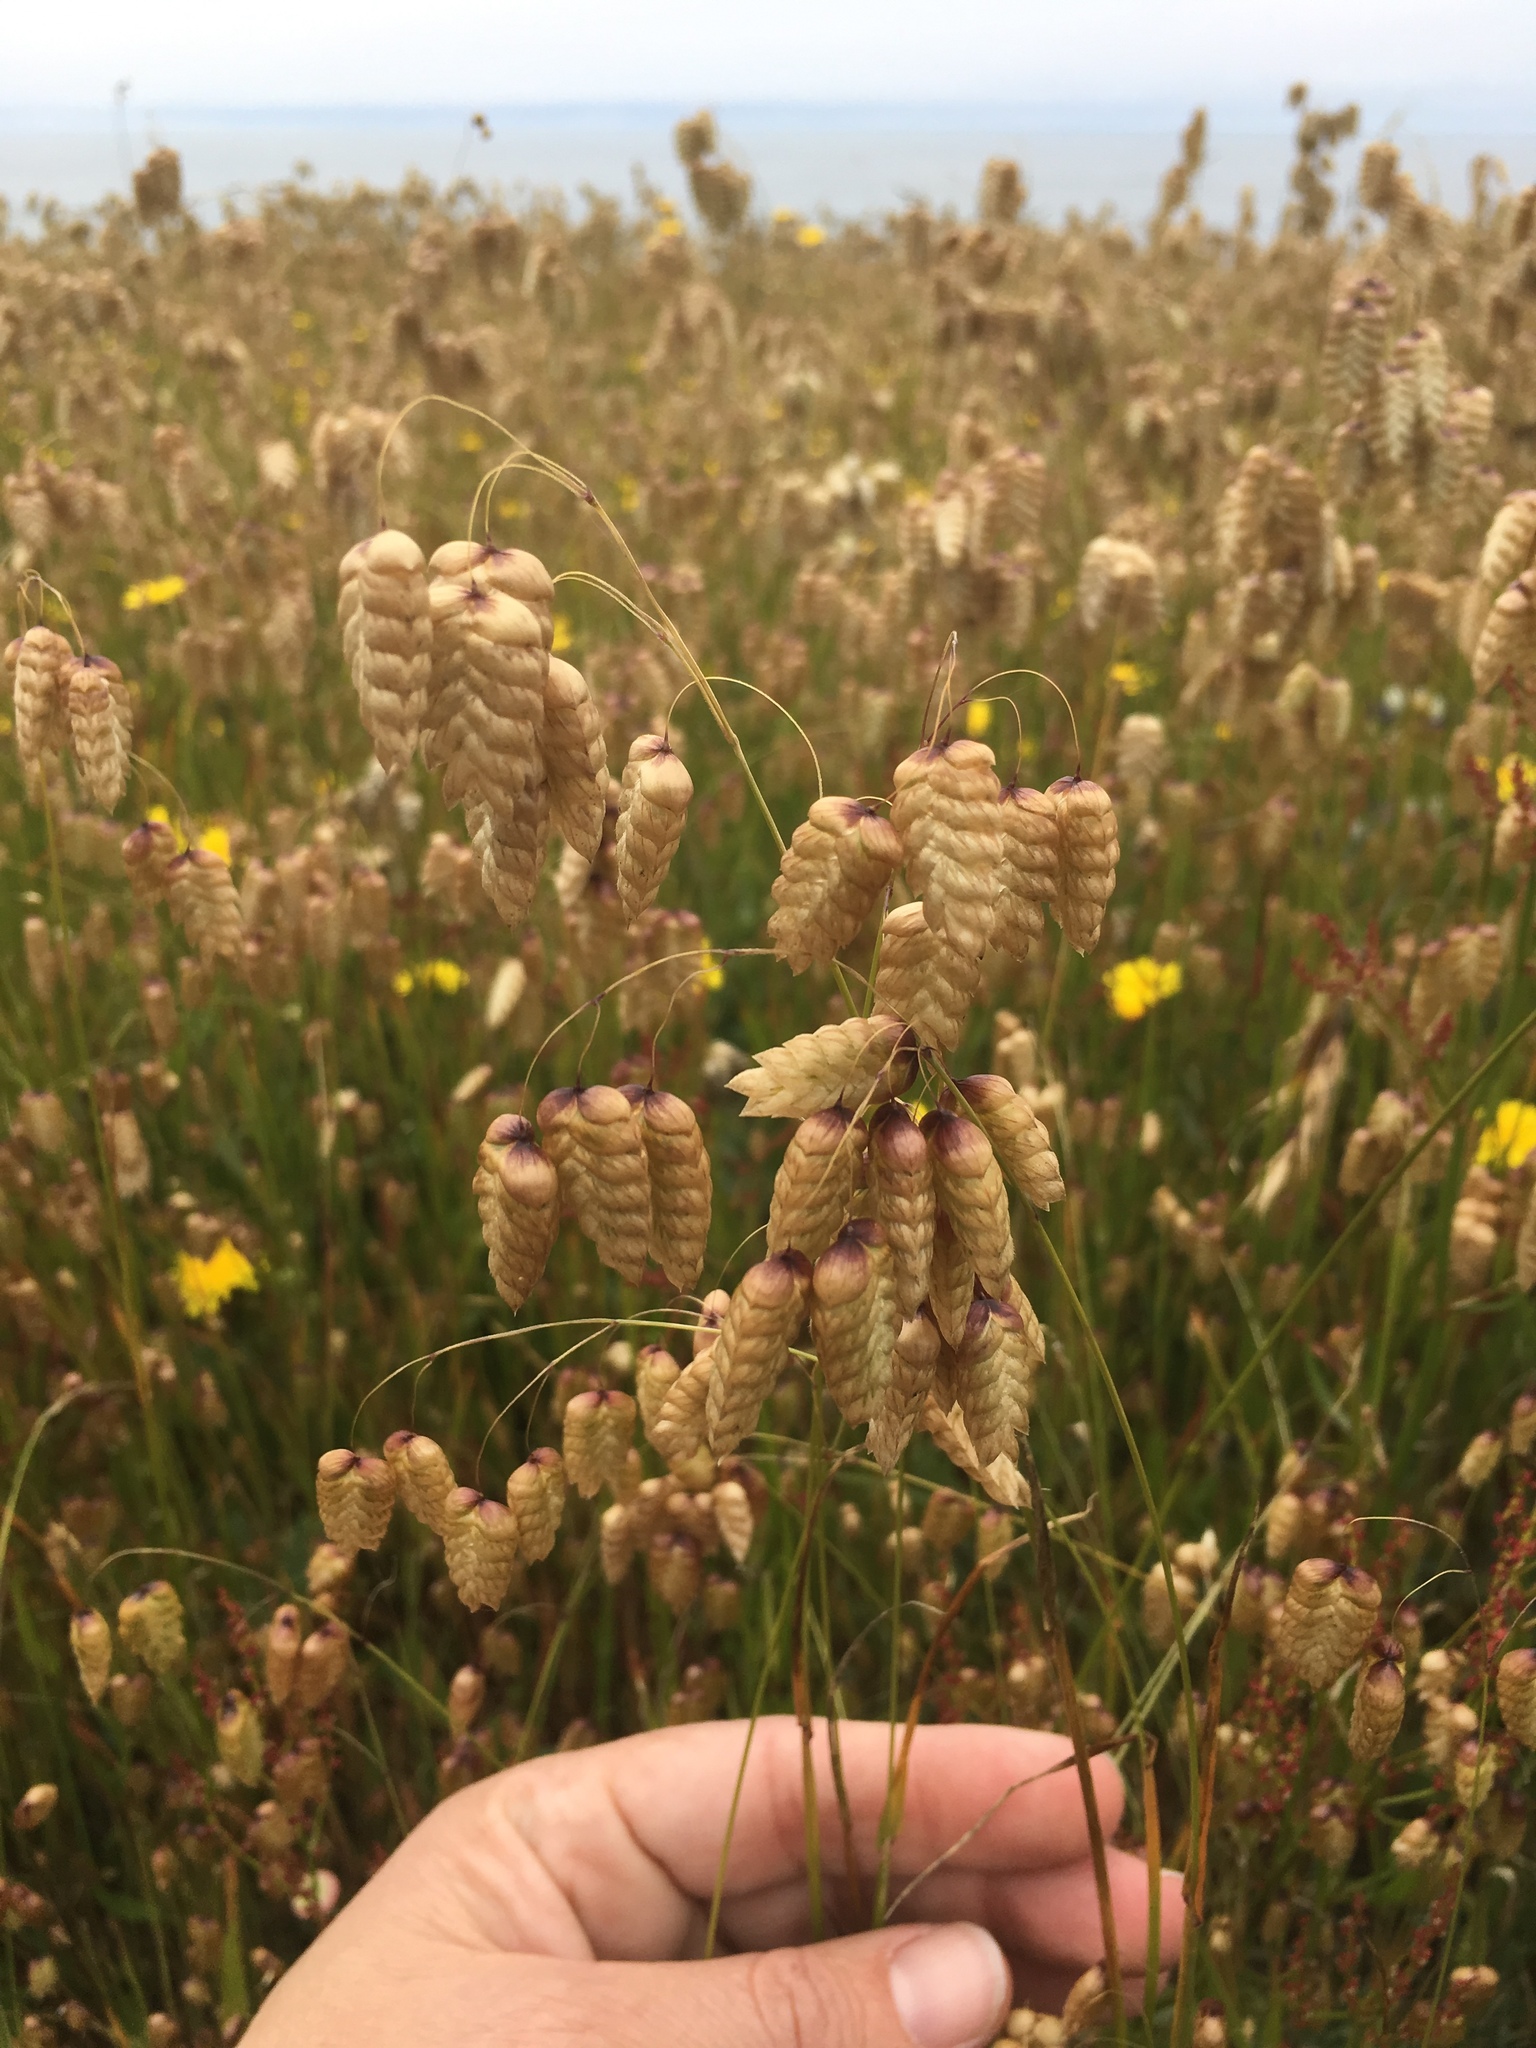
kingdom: Plantae
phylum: Tracheophyta
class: Liliopsida
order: Poales
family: Poaceae
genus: Briza
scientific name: Briza maxima
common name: Big quakinggrass
